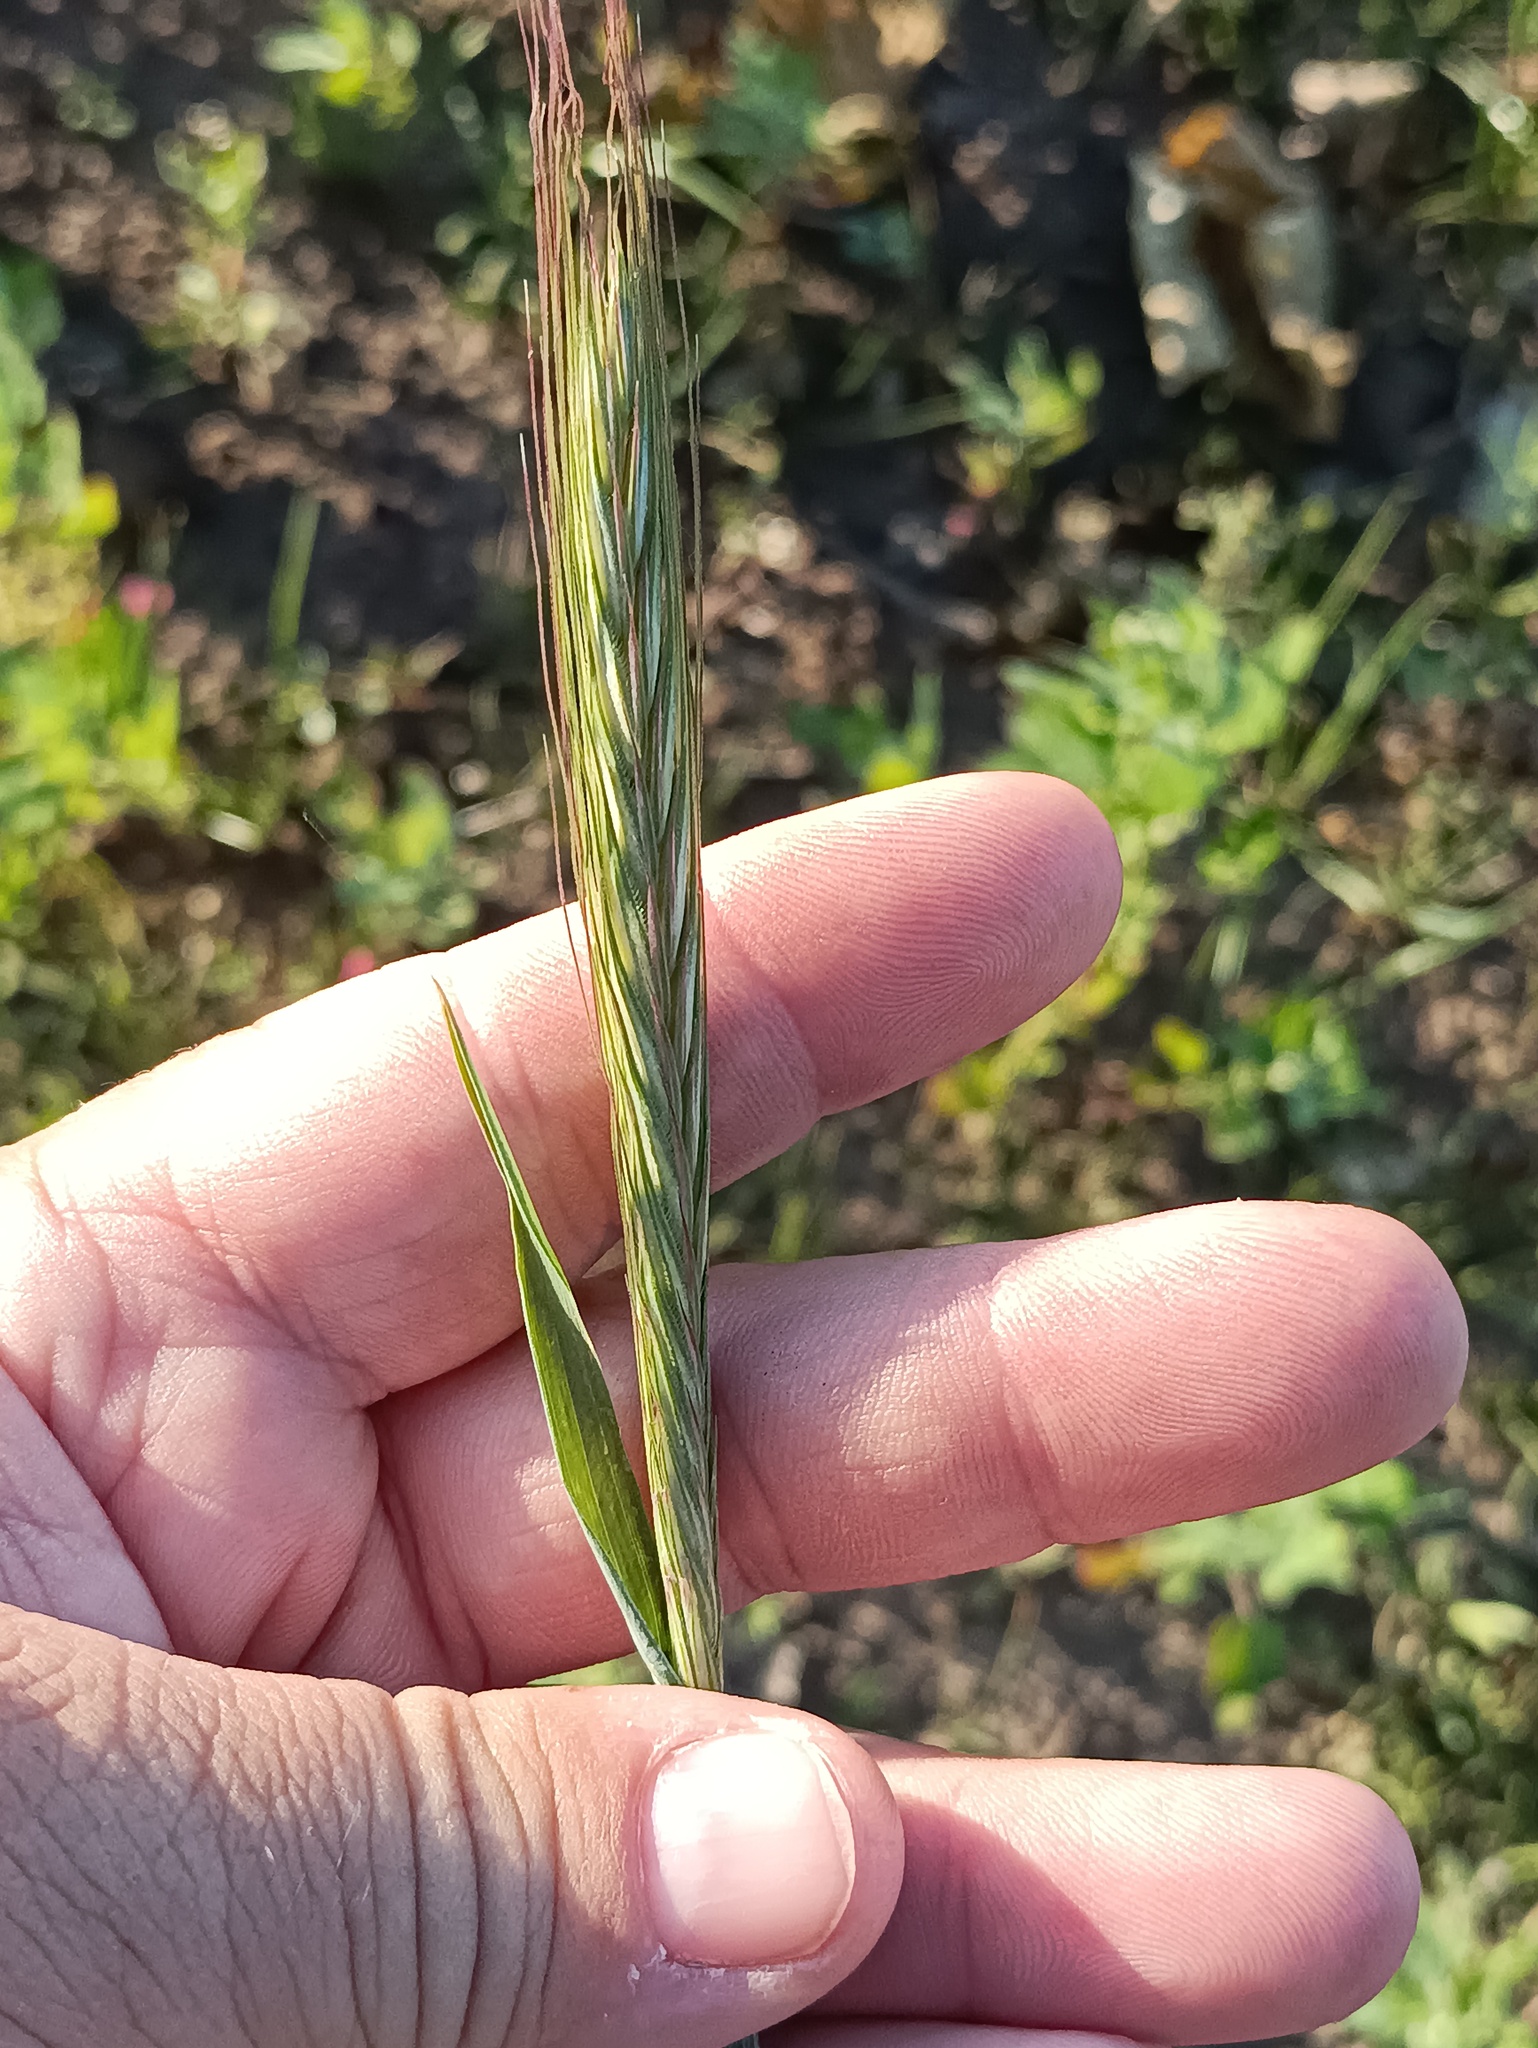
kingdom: Plantae
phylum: Tracheophyta
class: Liliopsida
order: Poales
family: Poaceae
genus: Secale
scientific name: Secale cereale
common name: Rye
